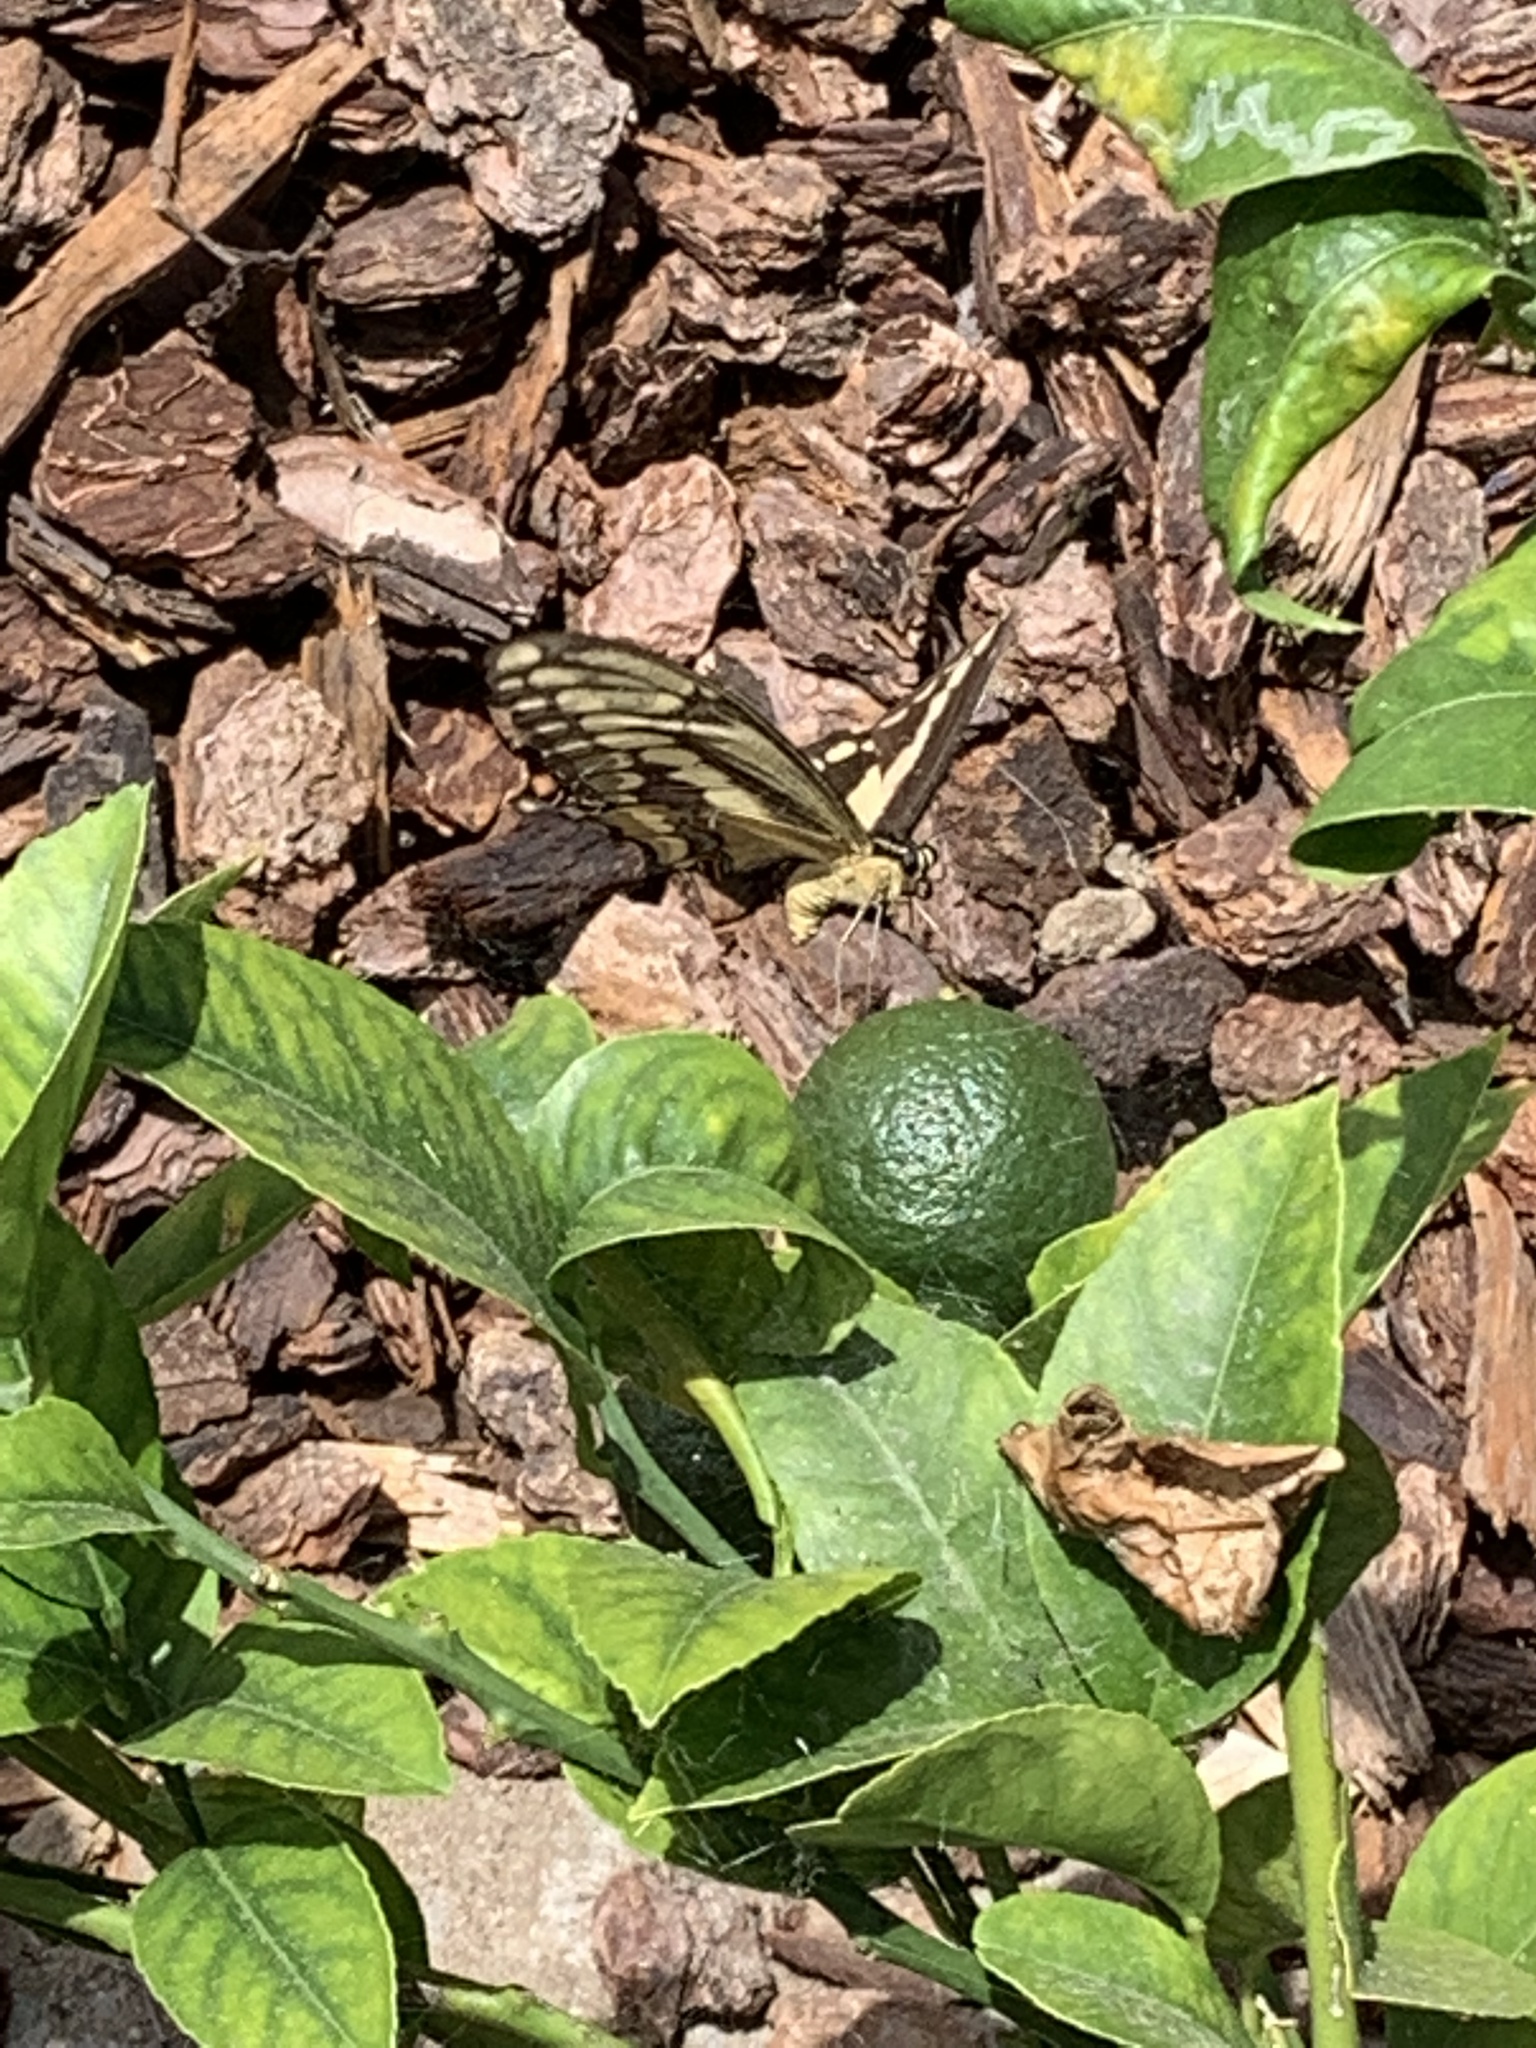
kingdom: Animalia
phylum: Arthropoda
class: Insecta
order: Lepidoptera
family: Papilionidae
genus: Papilio
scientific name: Papilio rumiko
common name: Western giant swallowtail
